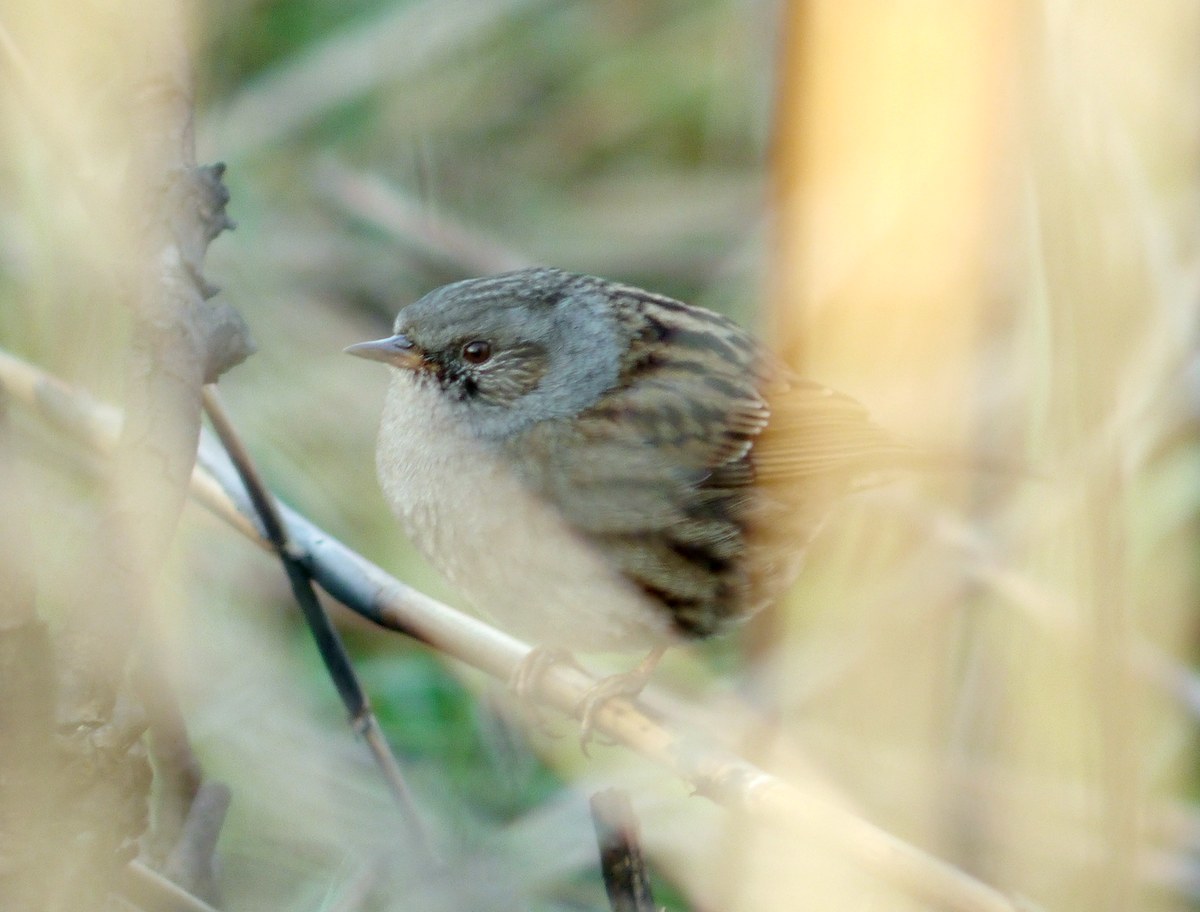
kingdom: Animalia
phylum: Chordata
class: Aves
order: Passeriformes
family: Prunellidae
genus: Prunella
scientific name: Prunella modularis
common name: Dunnock
